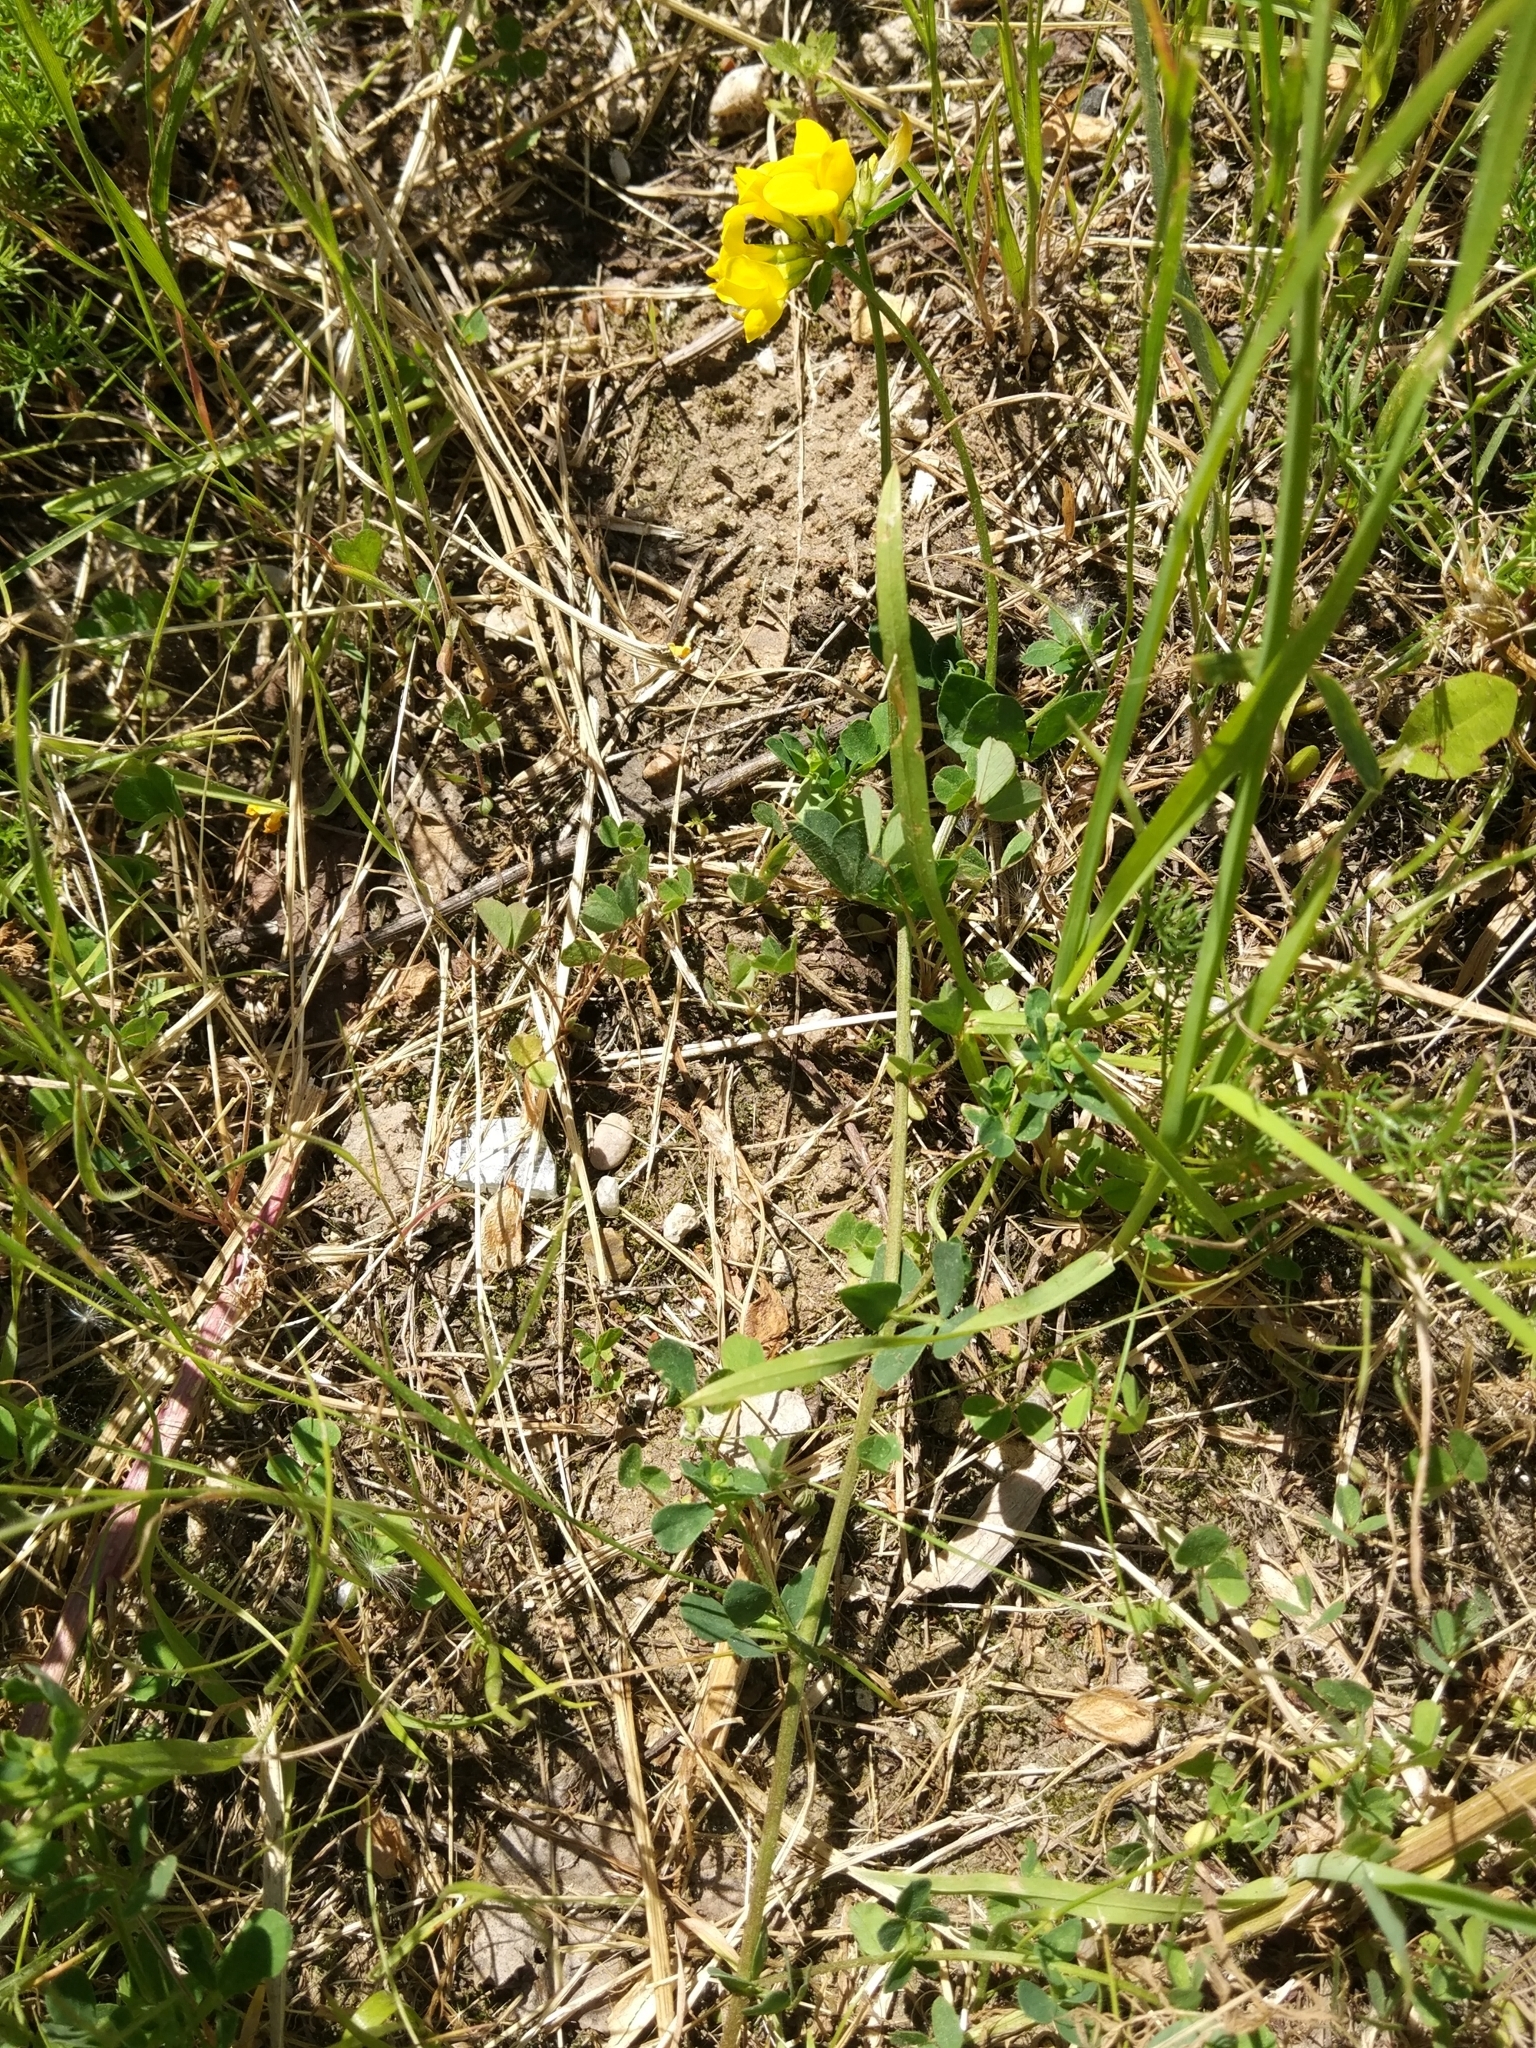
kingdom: Plantae
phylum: Tracheophyta
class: Magnoliopsida
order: Fabales
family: Fabaceae
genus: Lotus
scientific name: Lotus corniculatus
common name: Common bird's-foot-trefoil
